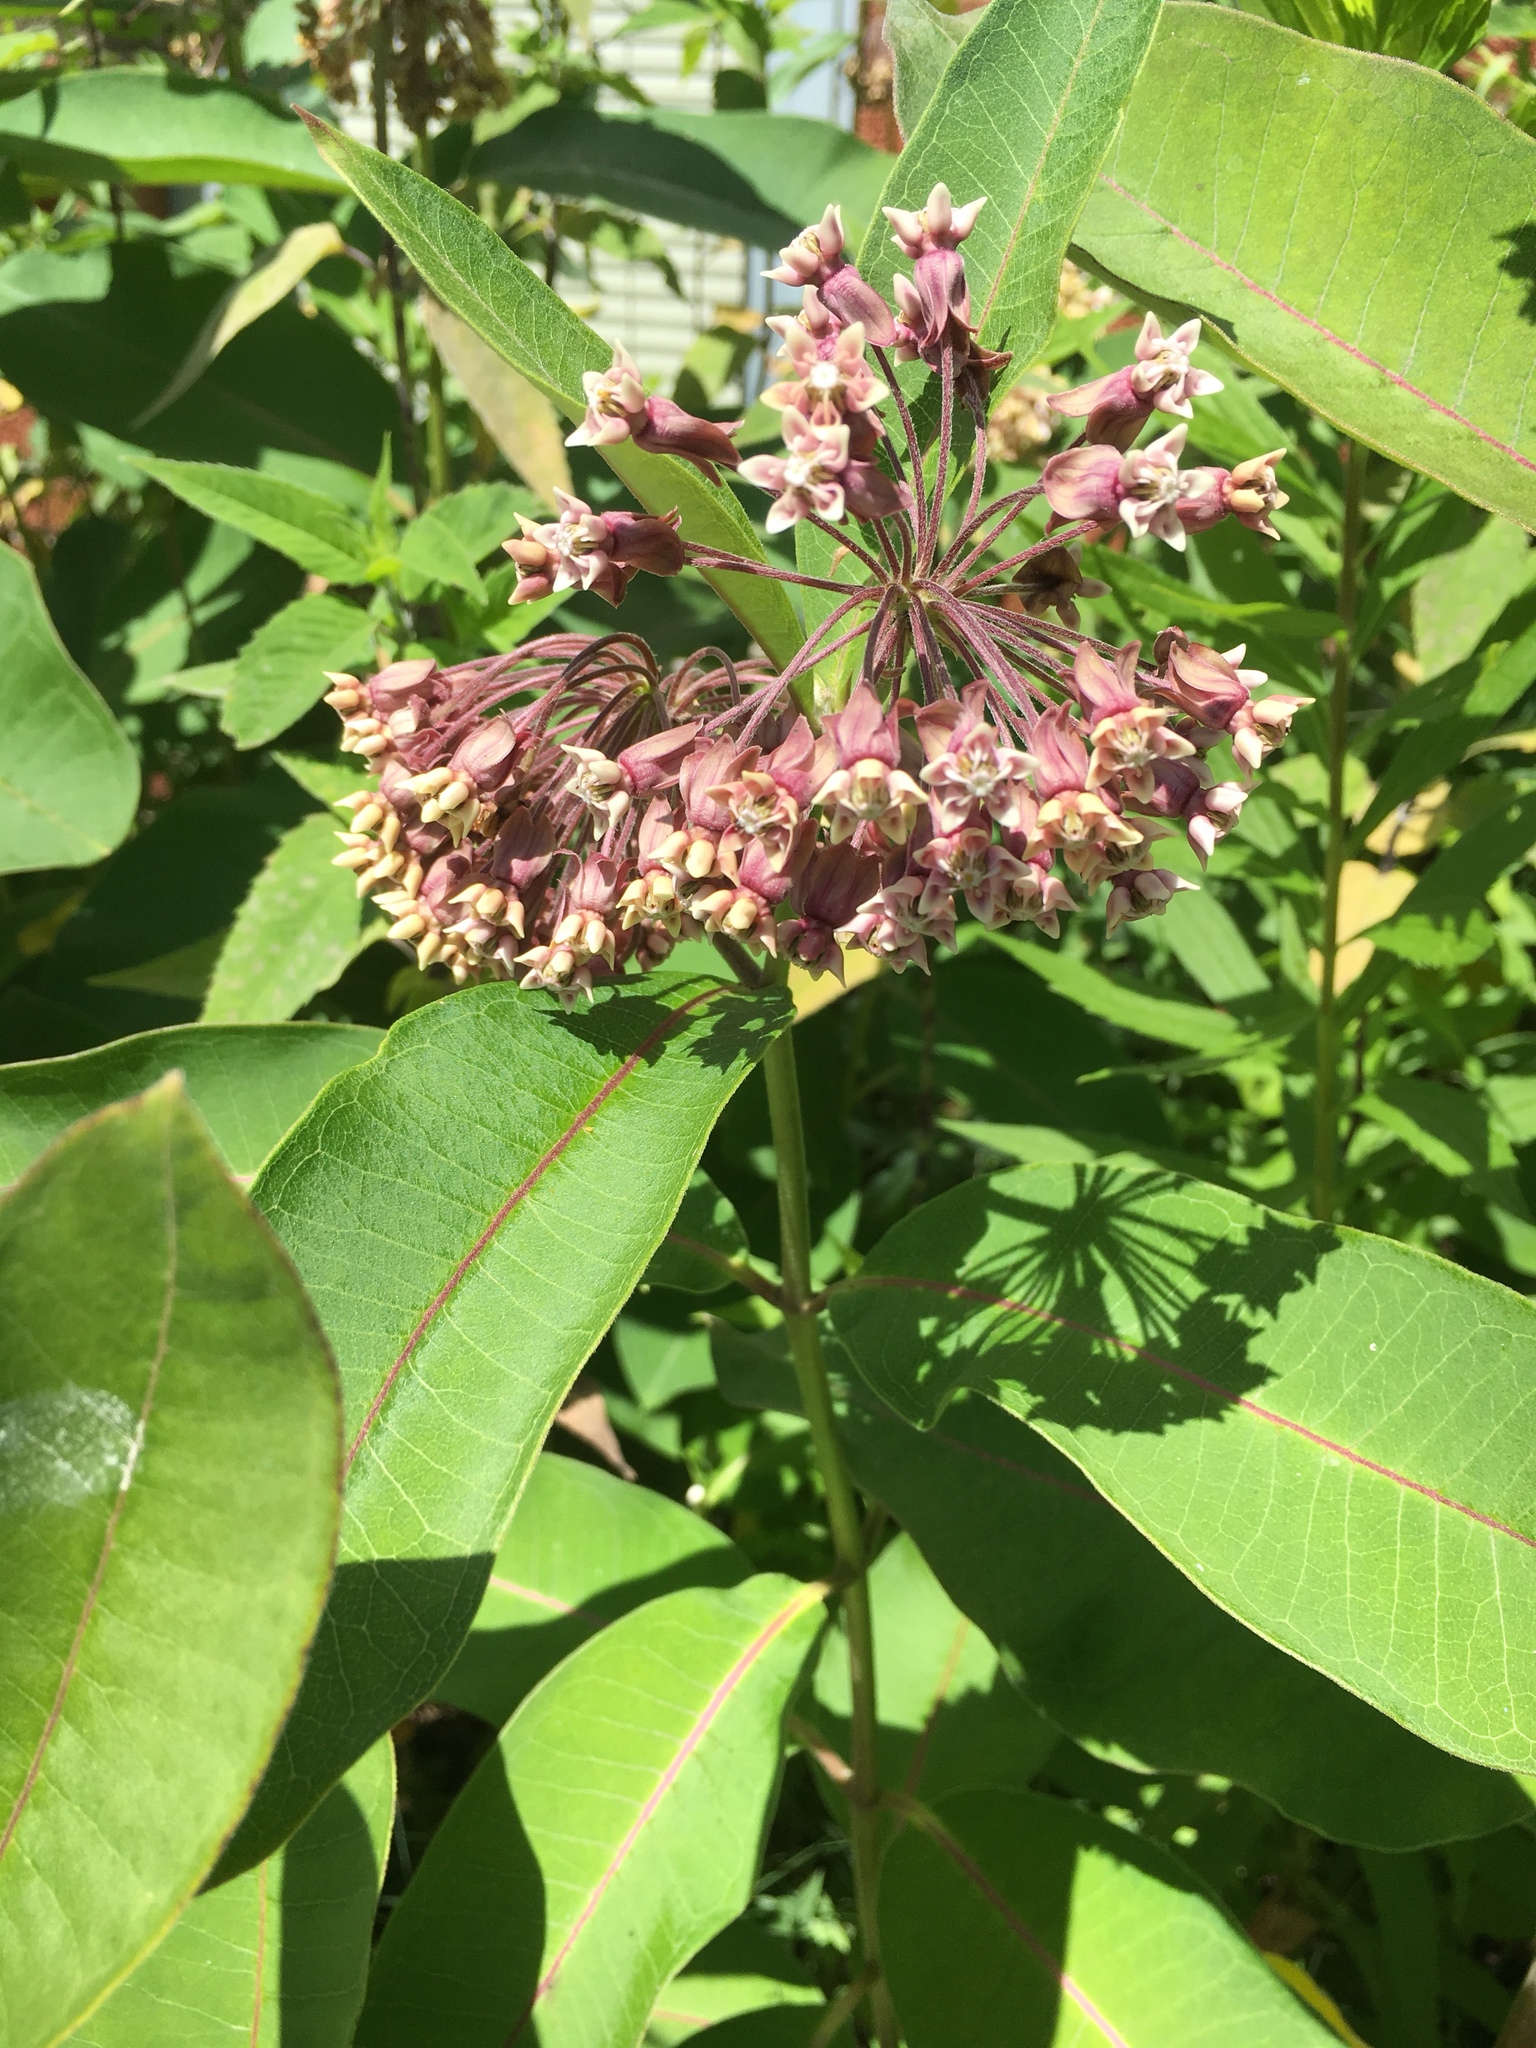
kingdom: Plantae
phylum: Tracheophyta
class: Magnoliopsida
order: Gentianales
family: Apocynaceae
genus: Asclepias
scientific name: Asclepias syriaca
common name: Common milkweed
